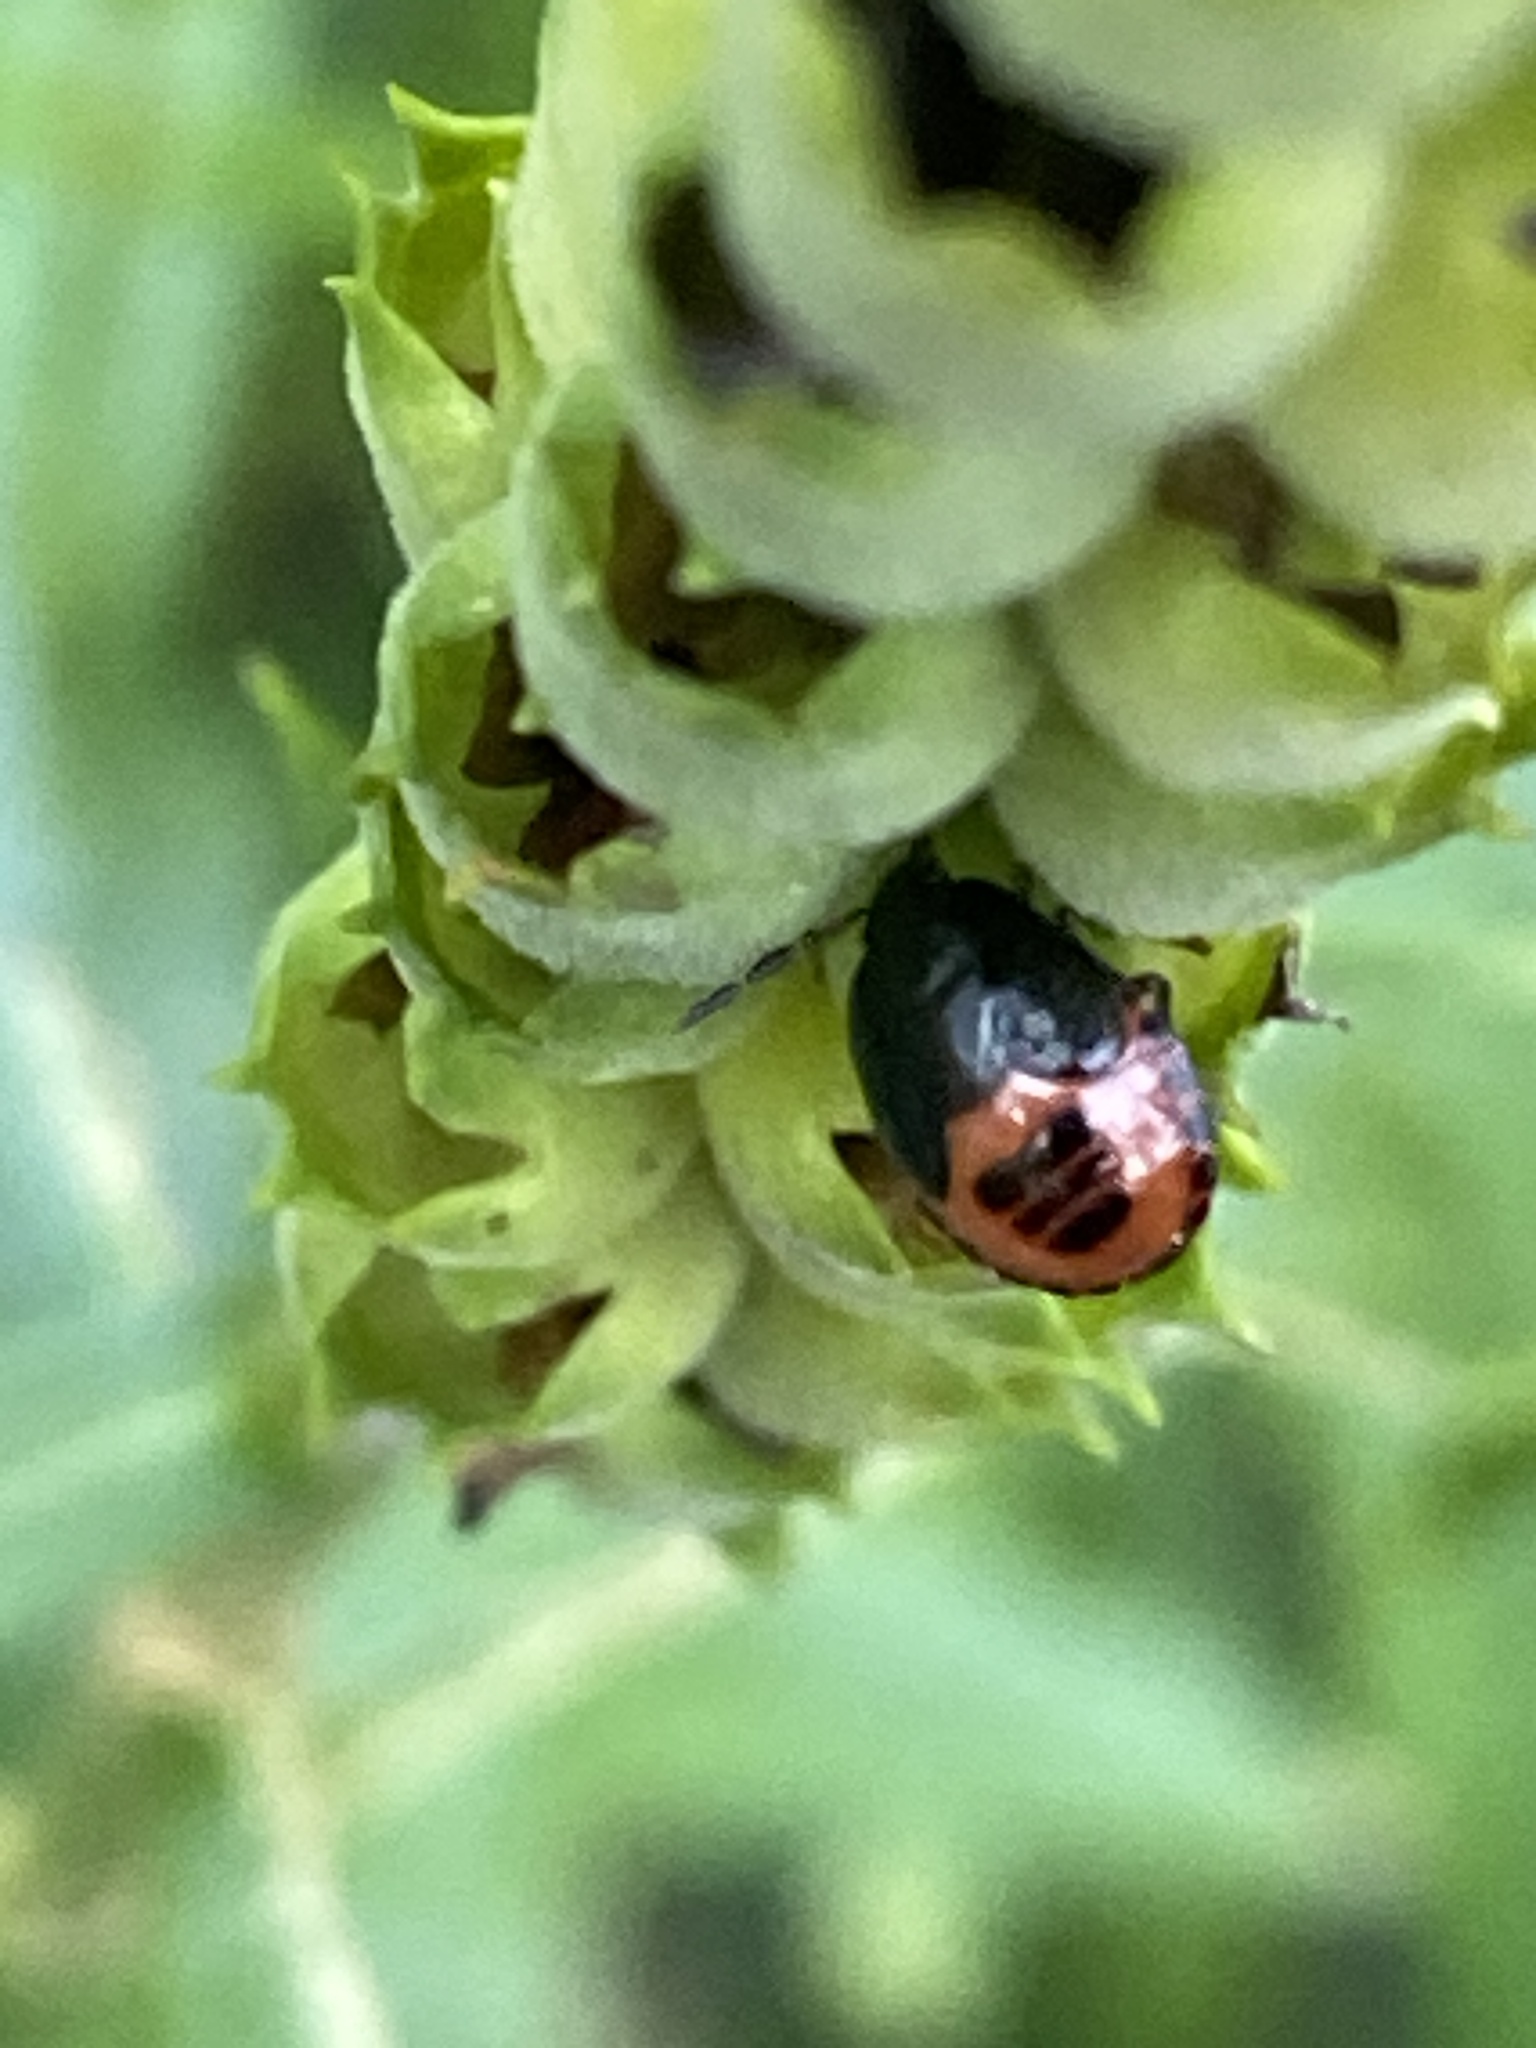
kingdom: Animalia
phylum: Arthropoda
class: Insecta
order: Hemiptera
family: Cydnidae
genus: Sehirus
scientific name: Sehirus cinctus
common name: White-margined burrower bug
